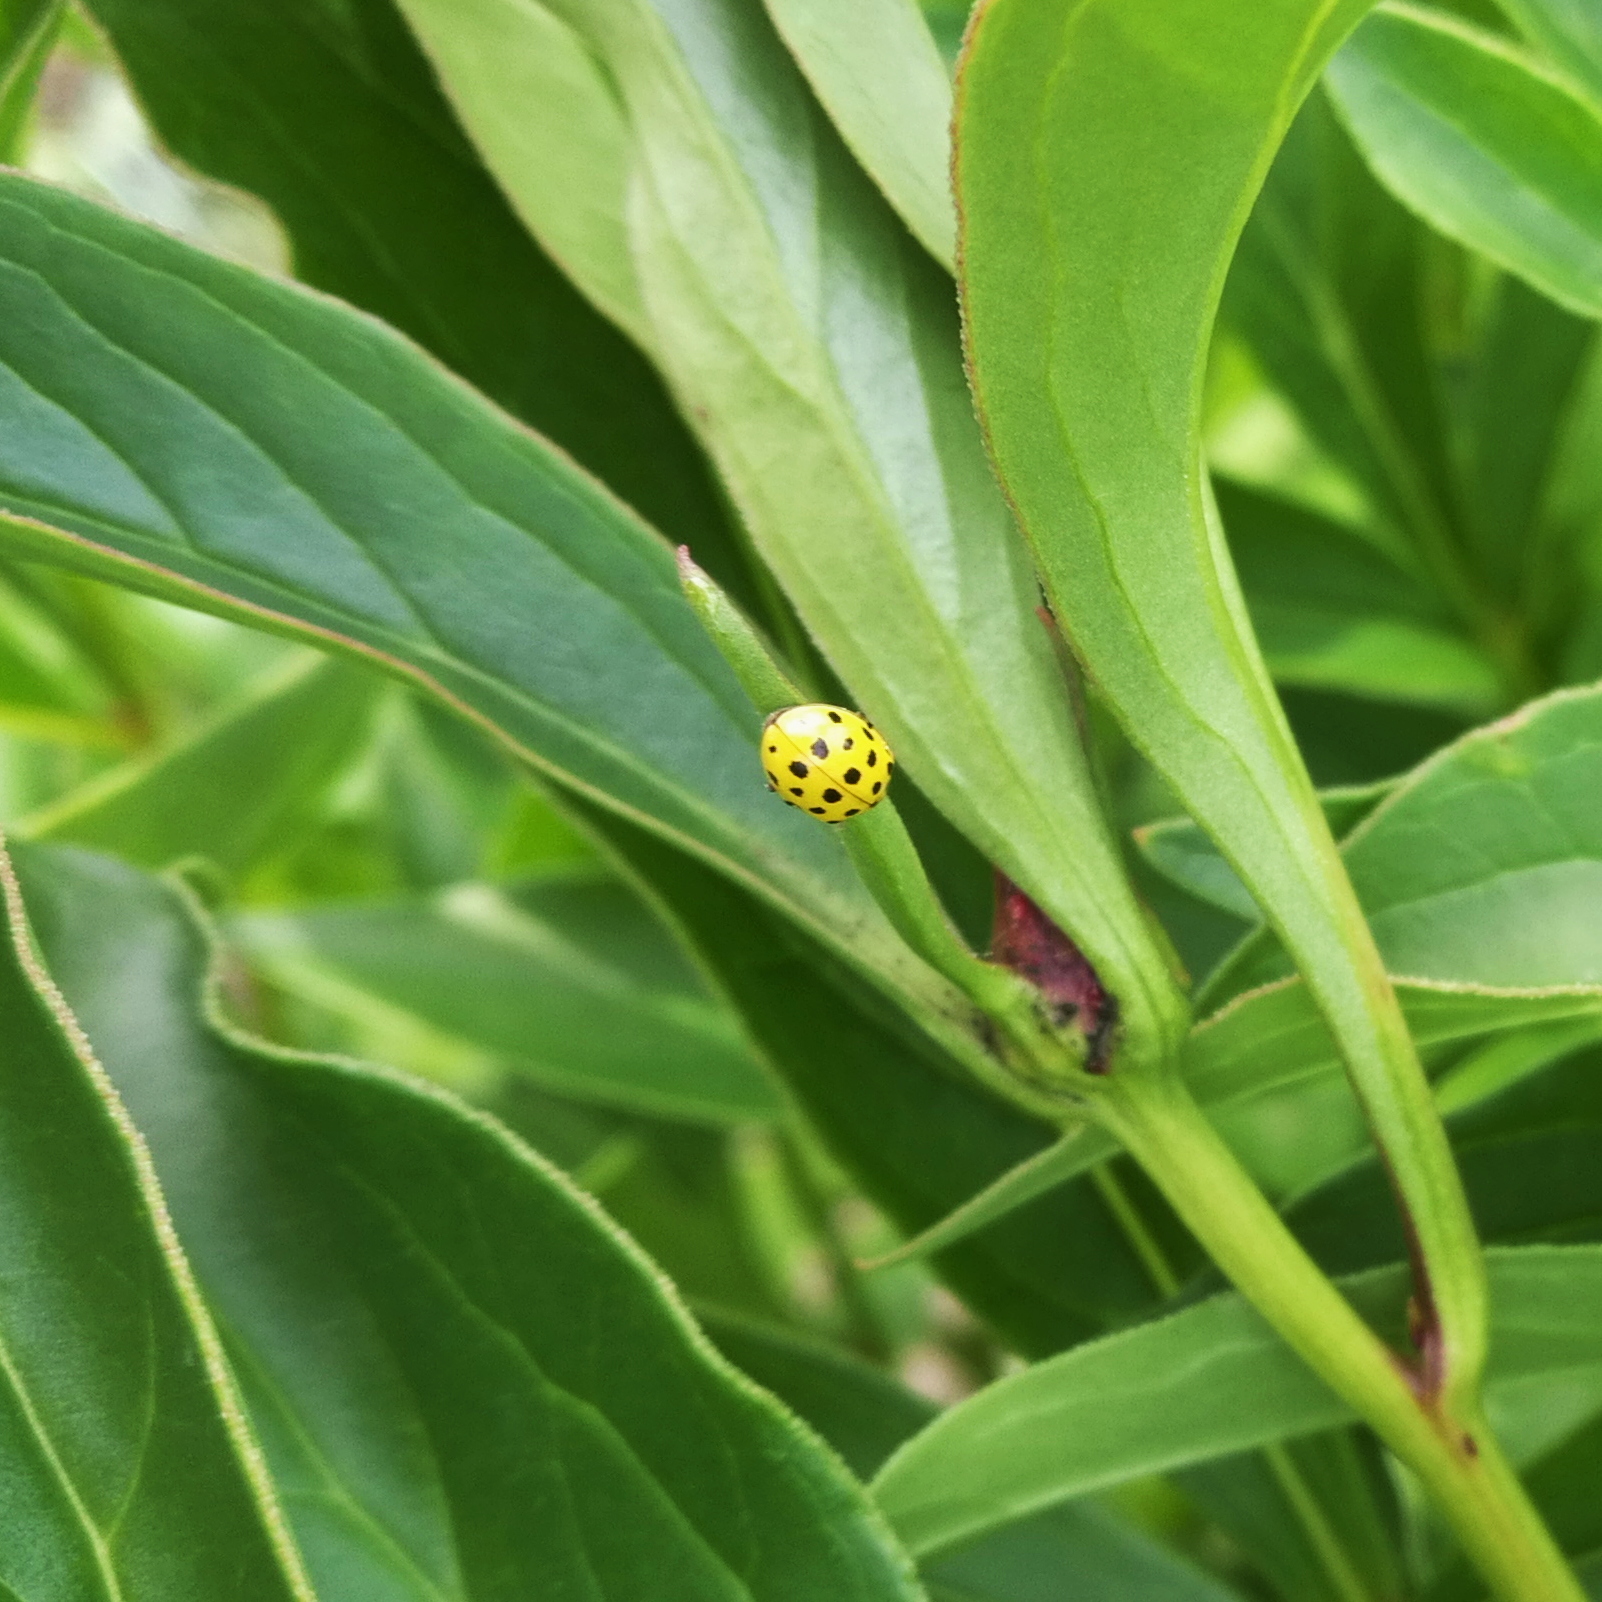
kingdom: Animalia
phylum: Arthropoda
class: Insecta
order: Coleoptera
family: Coccinellidae
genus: Psyllobora
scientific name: Psyllobora vigintiduopunctata
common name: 22-spot ladybird
